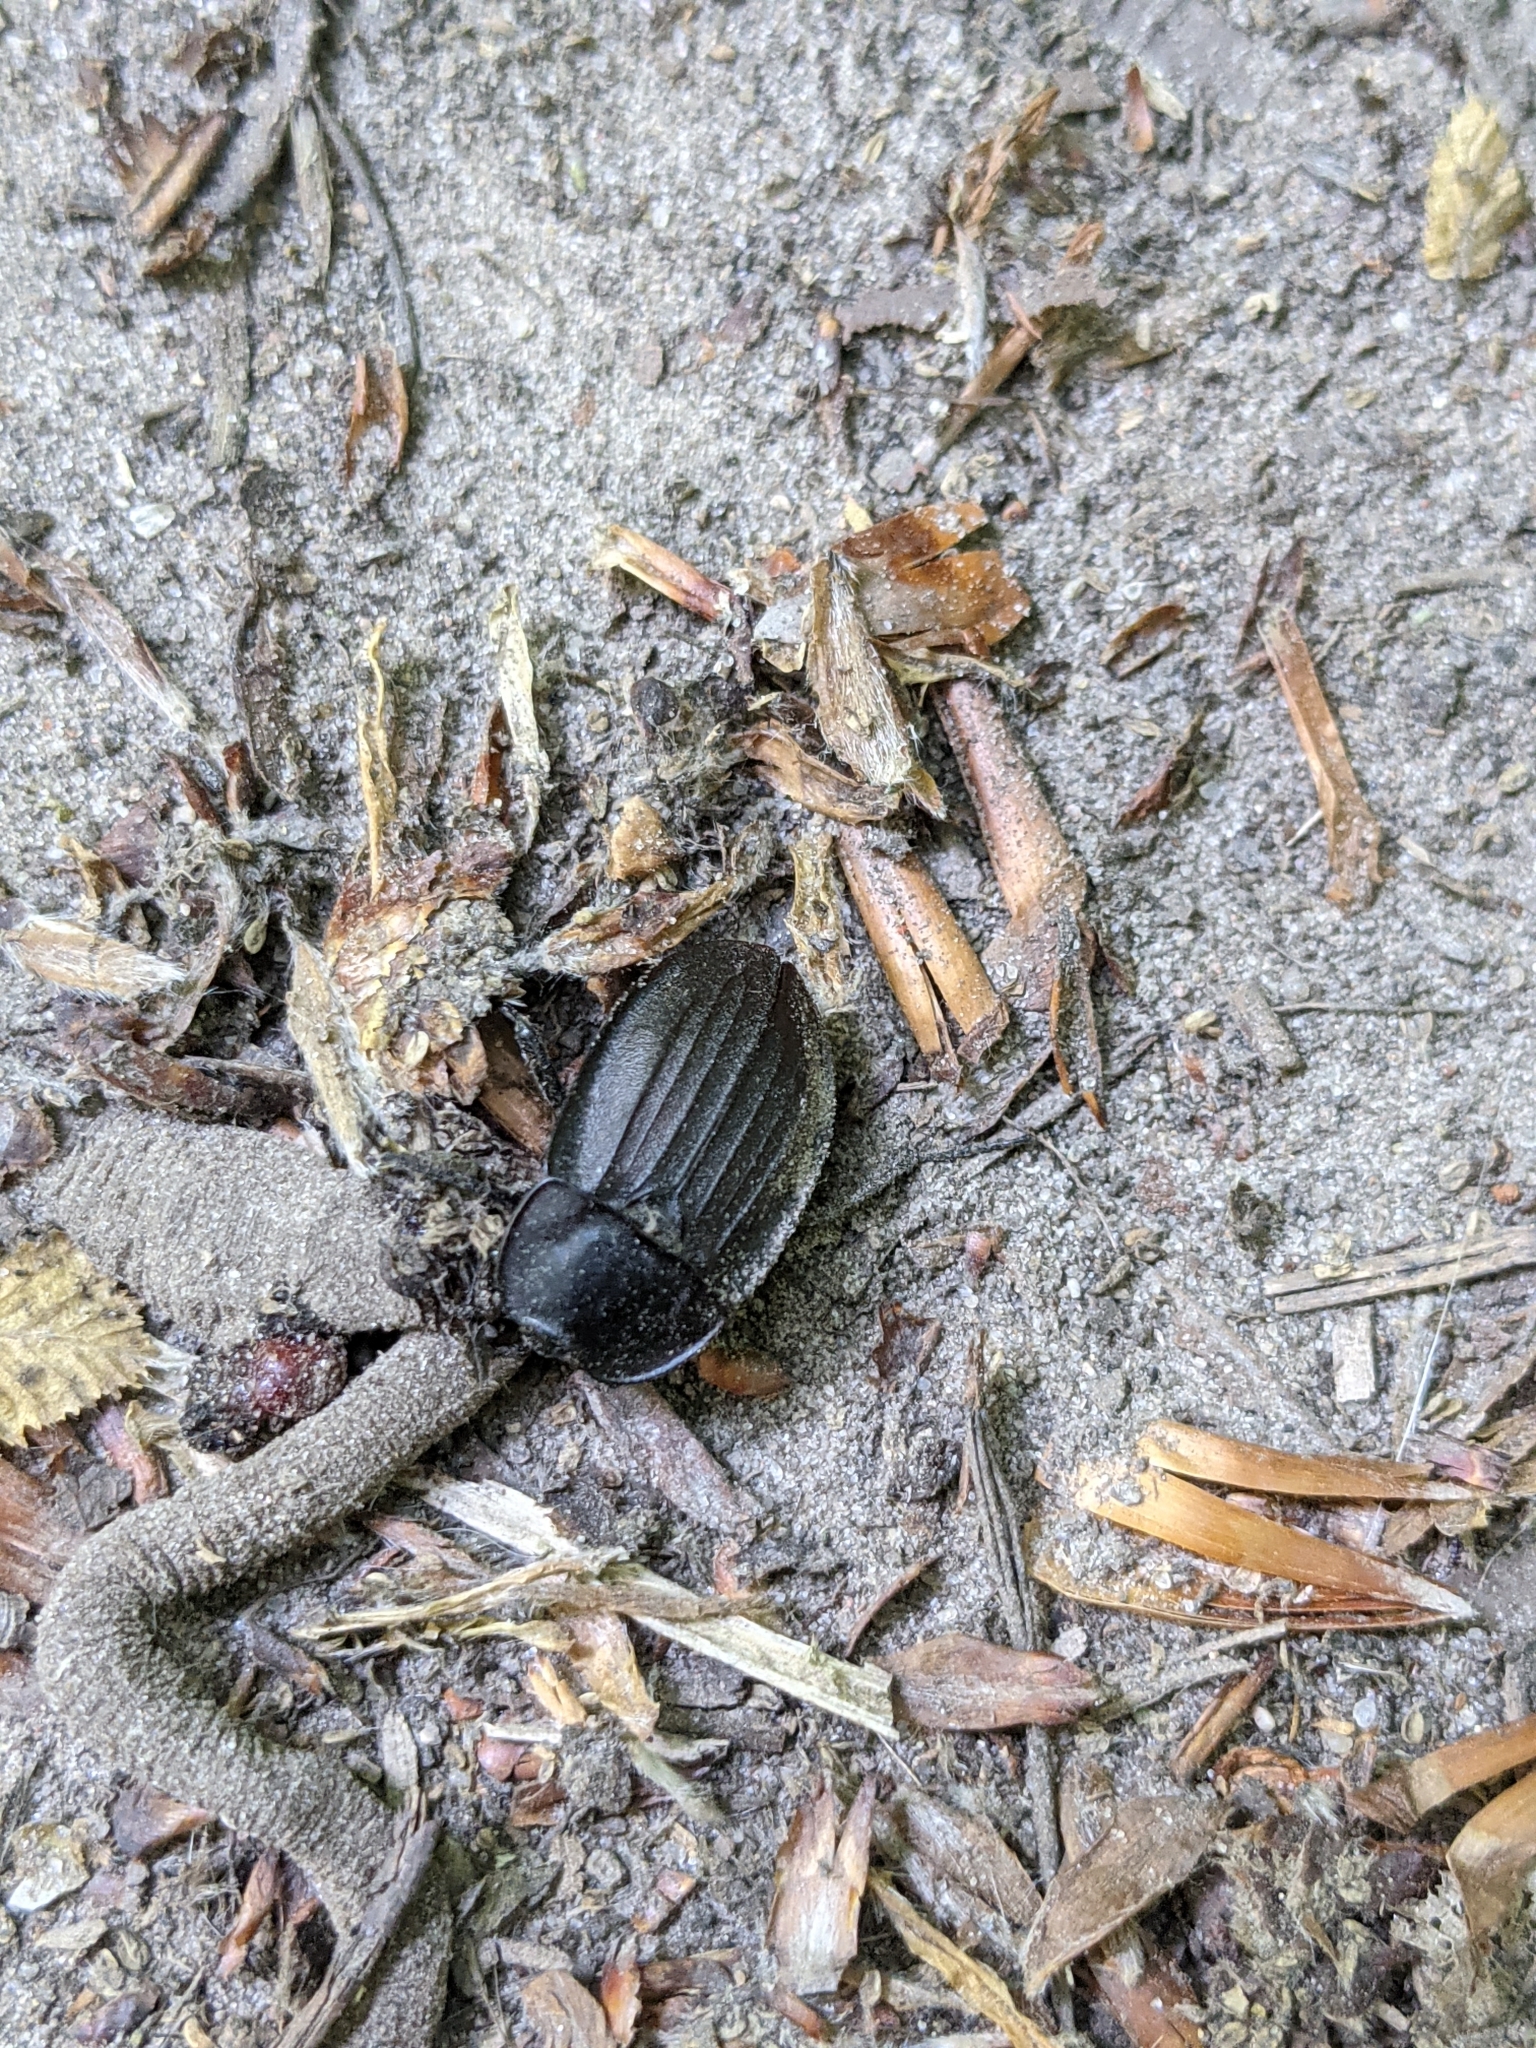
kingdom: Animalia
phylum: Arthropoda
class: Insecta
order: Coleoptera
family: Staphylinidae
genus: Silpha
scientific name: Silpha carinata
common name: Silphid beetle
